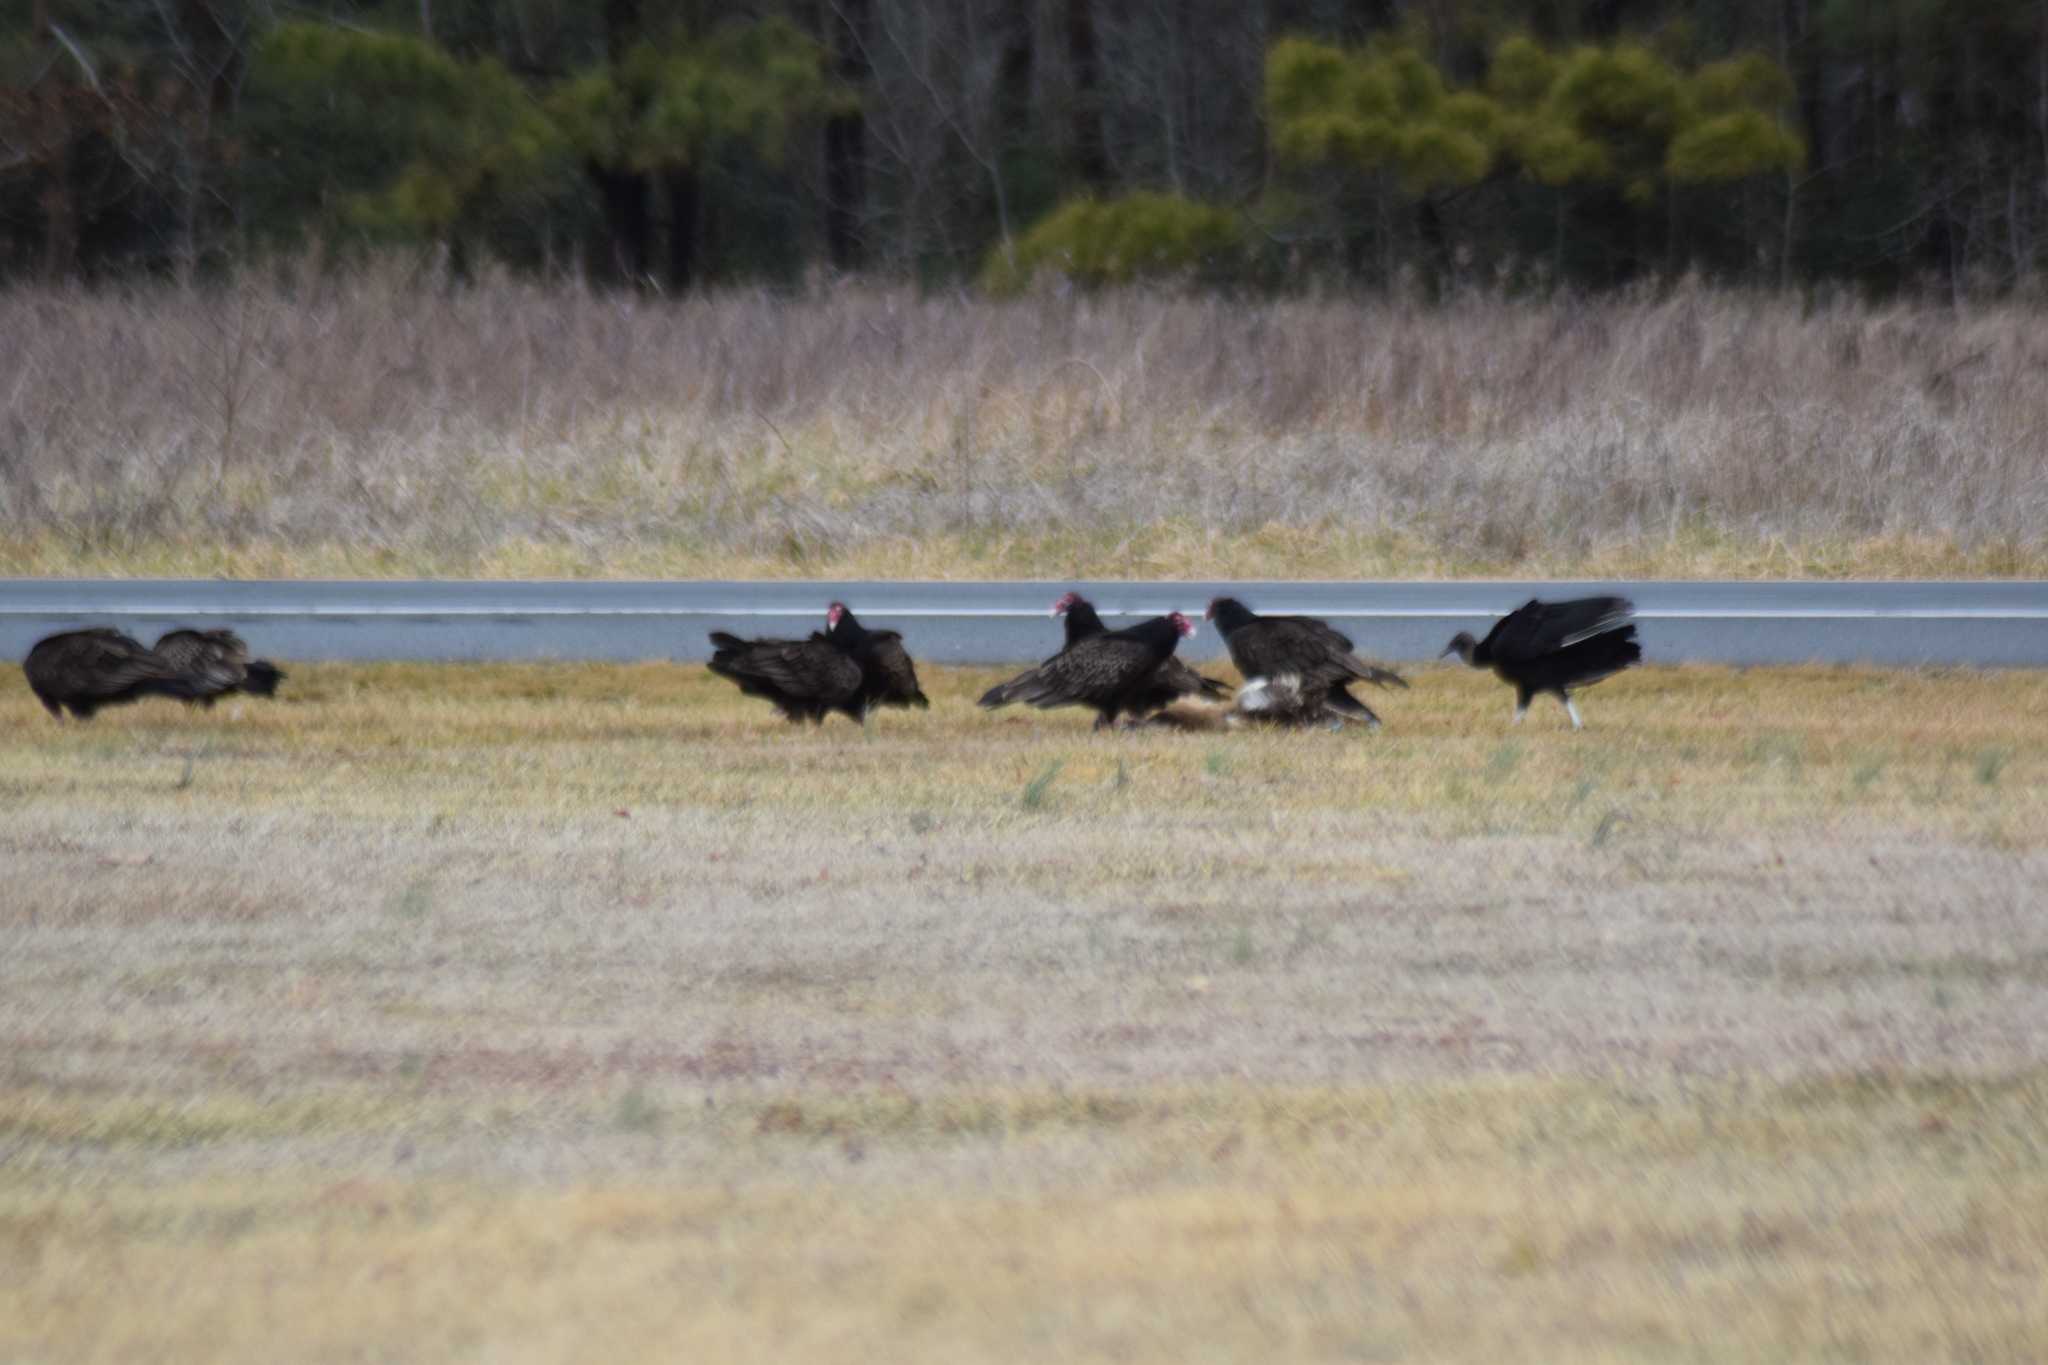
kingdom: Animalia
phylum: Chordata
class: Aves
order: Accipitriformes
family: Cathartidae
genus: Cathartes
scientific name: Cathartes aura
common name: Turkey vulture
